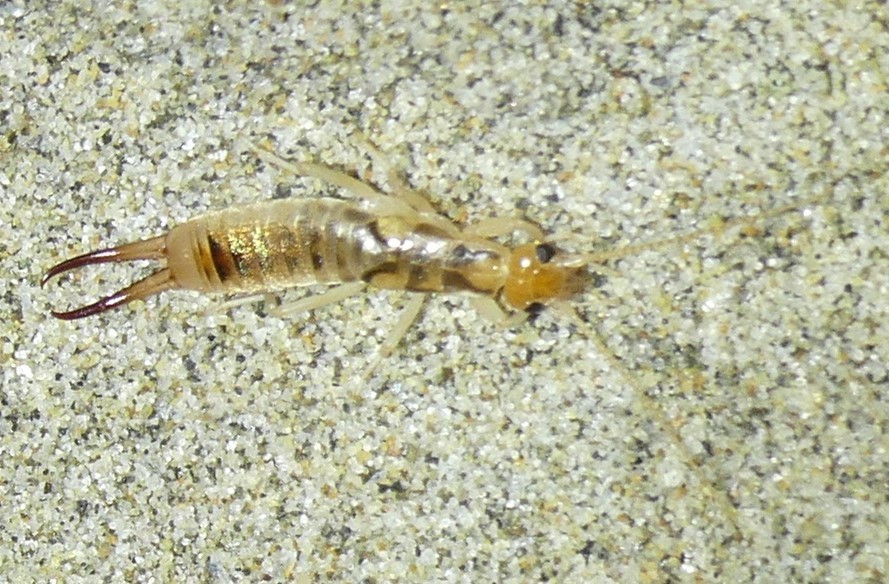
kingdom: Animalia
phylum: Arthropoda
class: Insecta
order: Dermaptera
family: Labiduridae
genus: Labidura
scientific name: Labidura riparia
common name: Striped earwig
